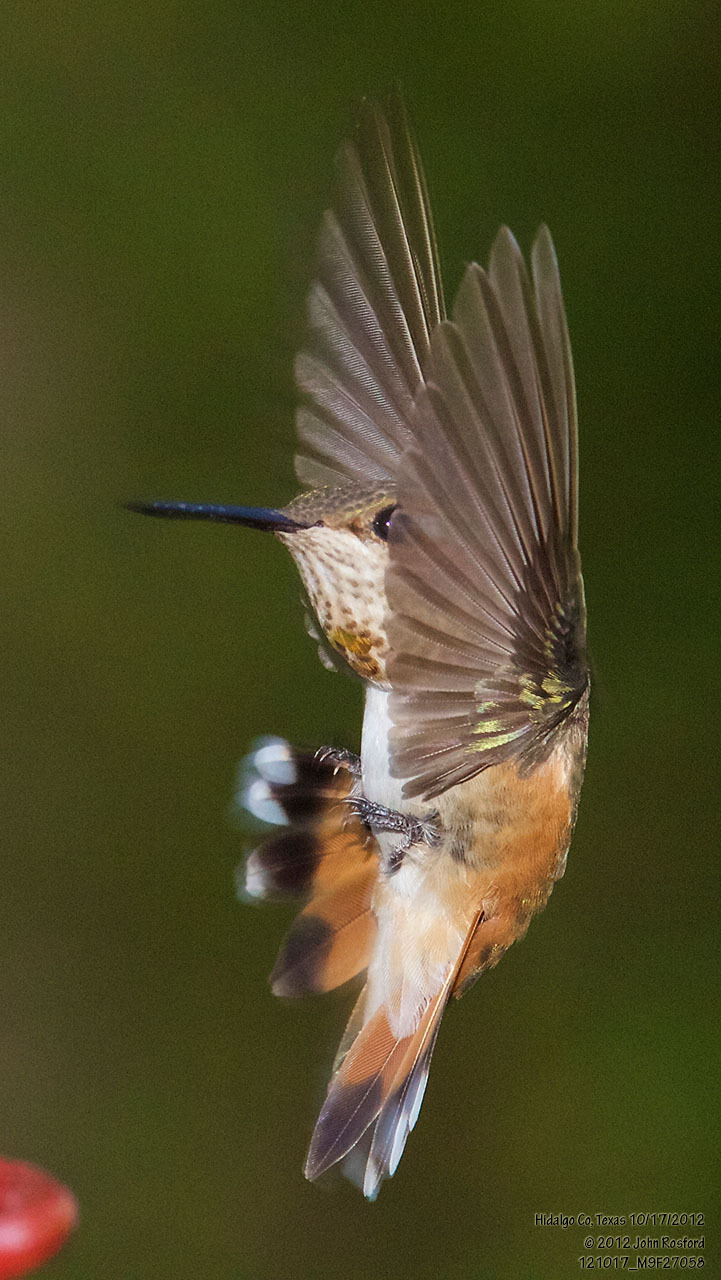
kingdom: Animalia
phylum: Chordata
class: Aves
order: Apodiformes
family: Trochilidae
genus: Selasphorus
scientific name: Selasphorus rufus
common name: Rufous hummingbird
